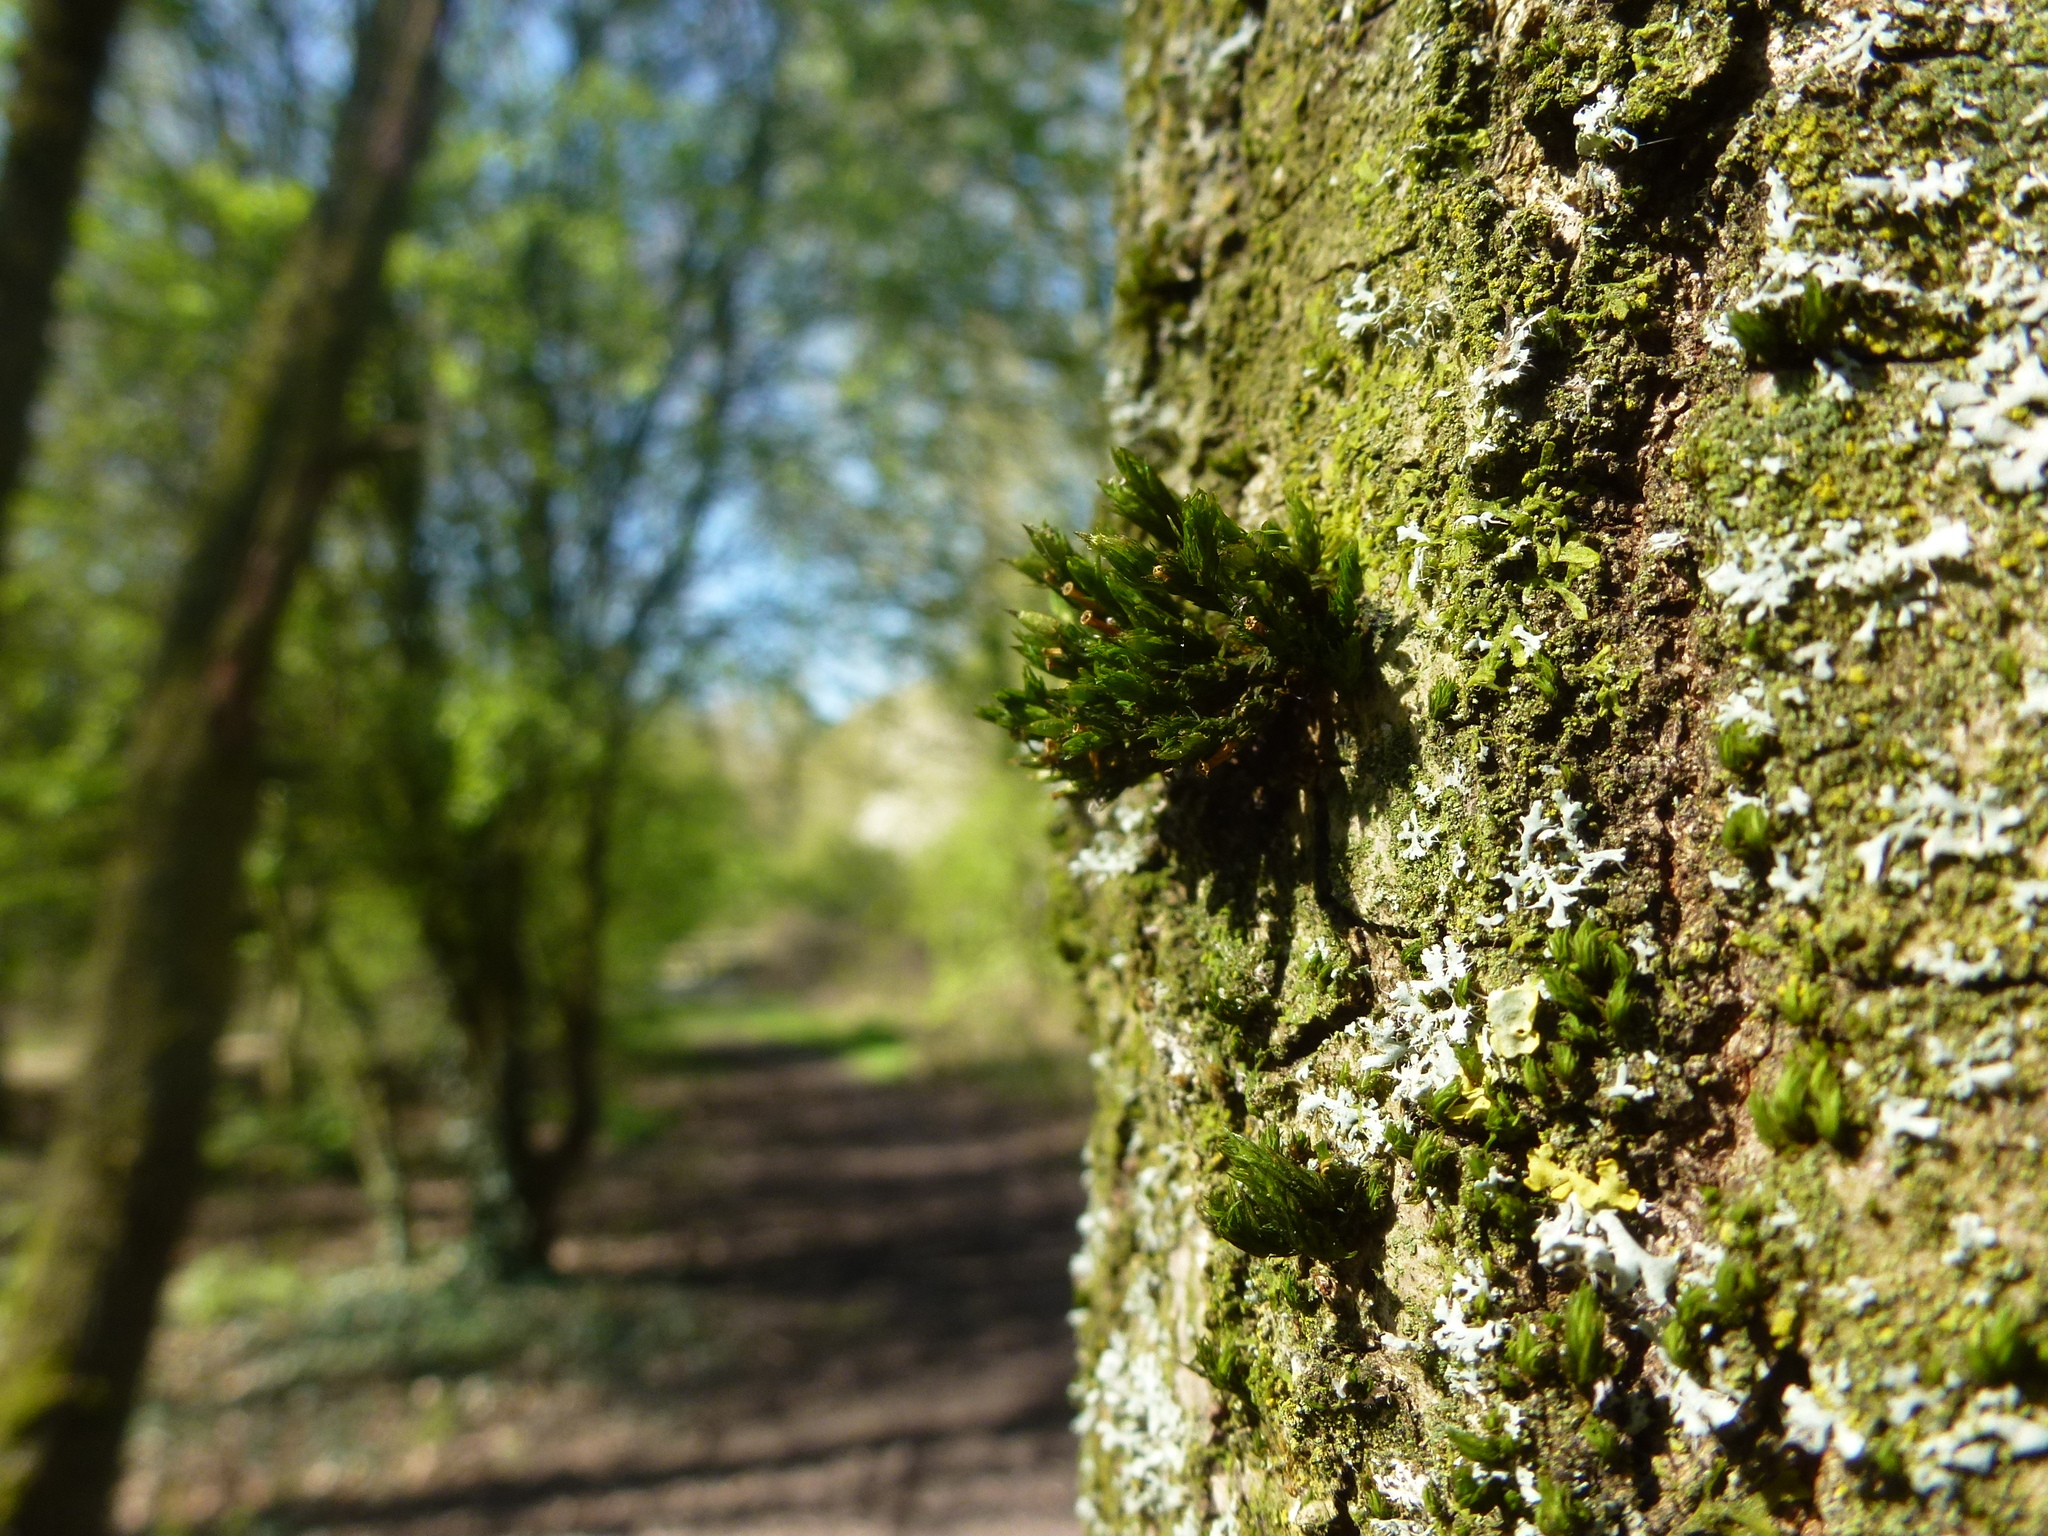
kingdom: Plantae
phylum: Bryophyta
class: Bryopsida
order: Orthotrichales
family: Orthotrichaceae
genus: Lewinskya
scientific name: Lewinskya affinis
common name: Wood bristle-moss
